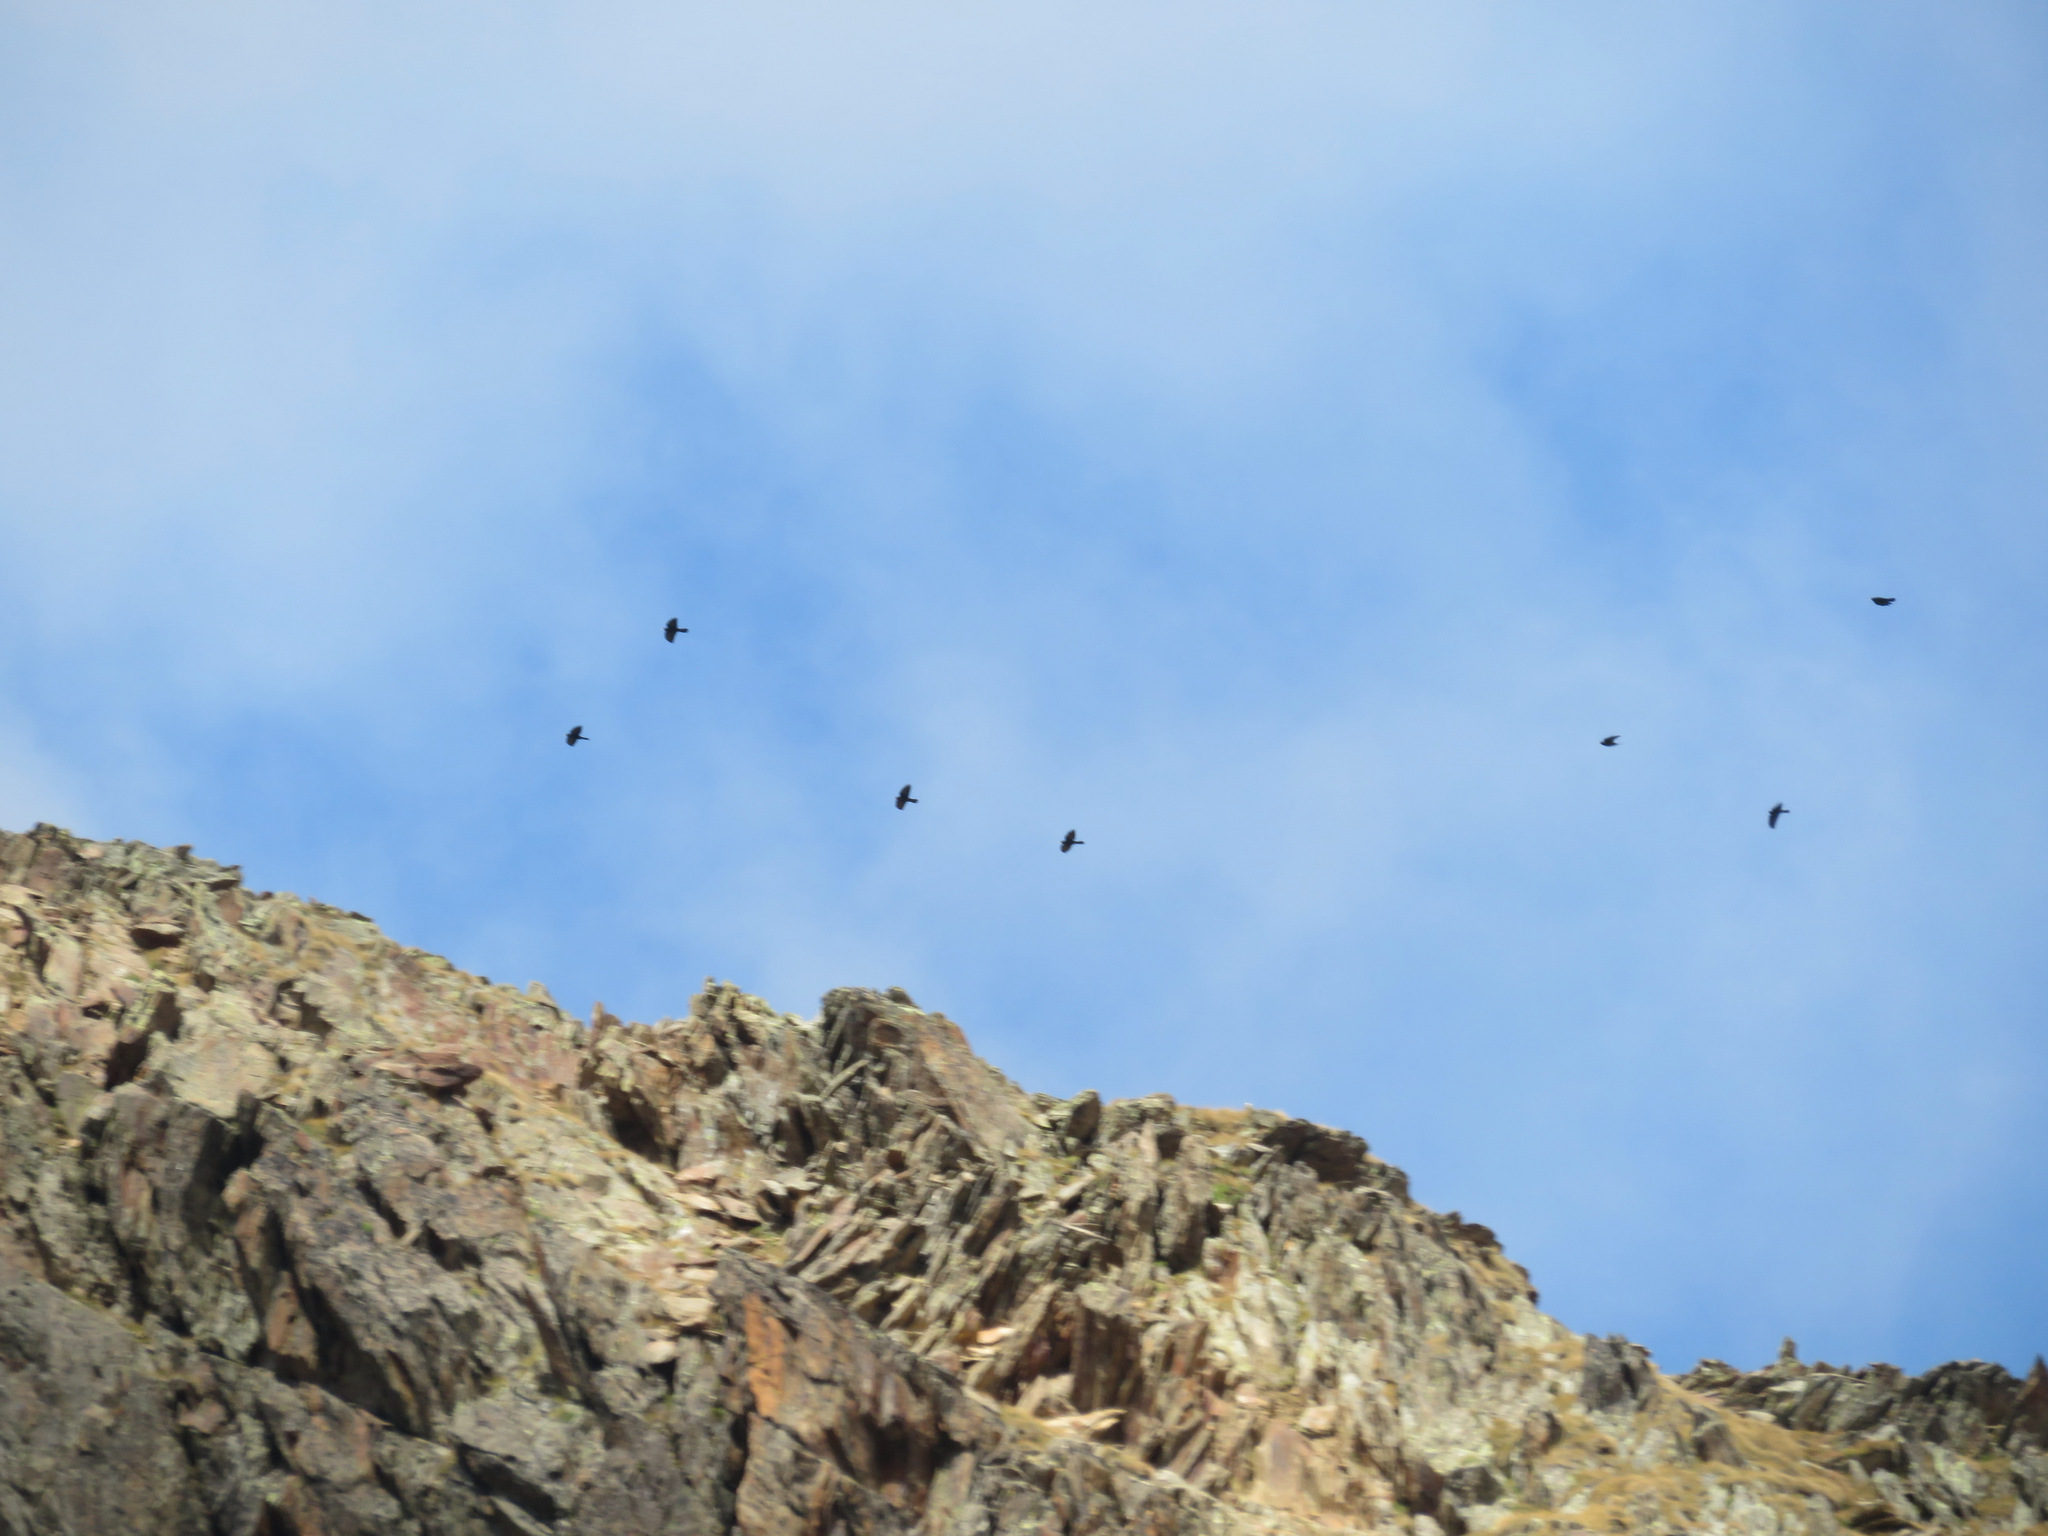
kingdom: Animalia
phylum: Chordata
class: Aves
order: Passeriformes
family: Corvidae
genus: Pyrrhocorax
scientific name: Pyrrhocorax graculus
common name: Alpine chough
